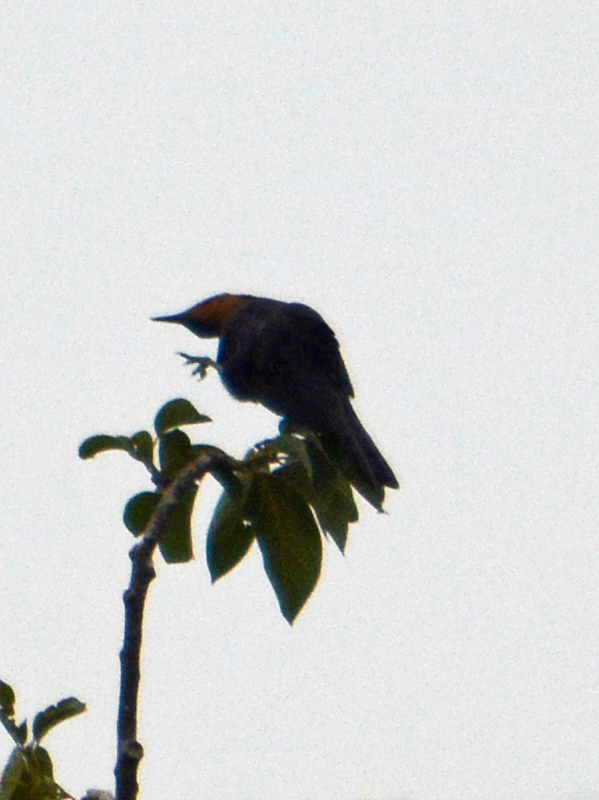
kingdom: Animalia
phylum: Chordata
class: Aves
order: Passeriformes
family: Icteridae
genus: Quiscalus
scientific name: Quiscalus mexicanus
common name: Great-tailed grackle
